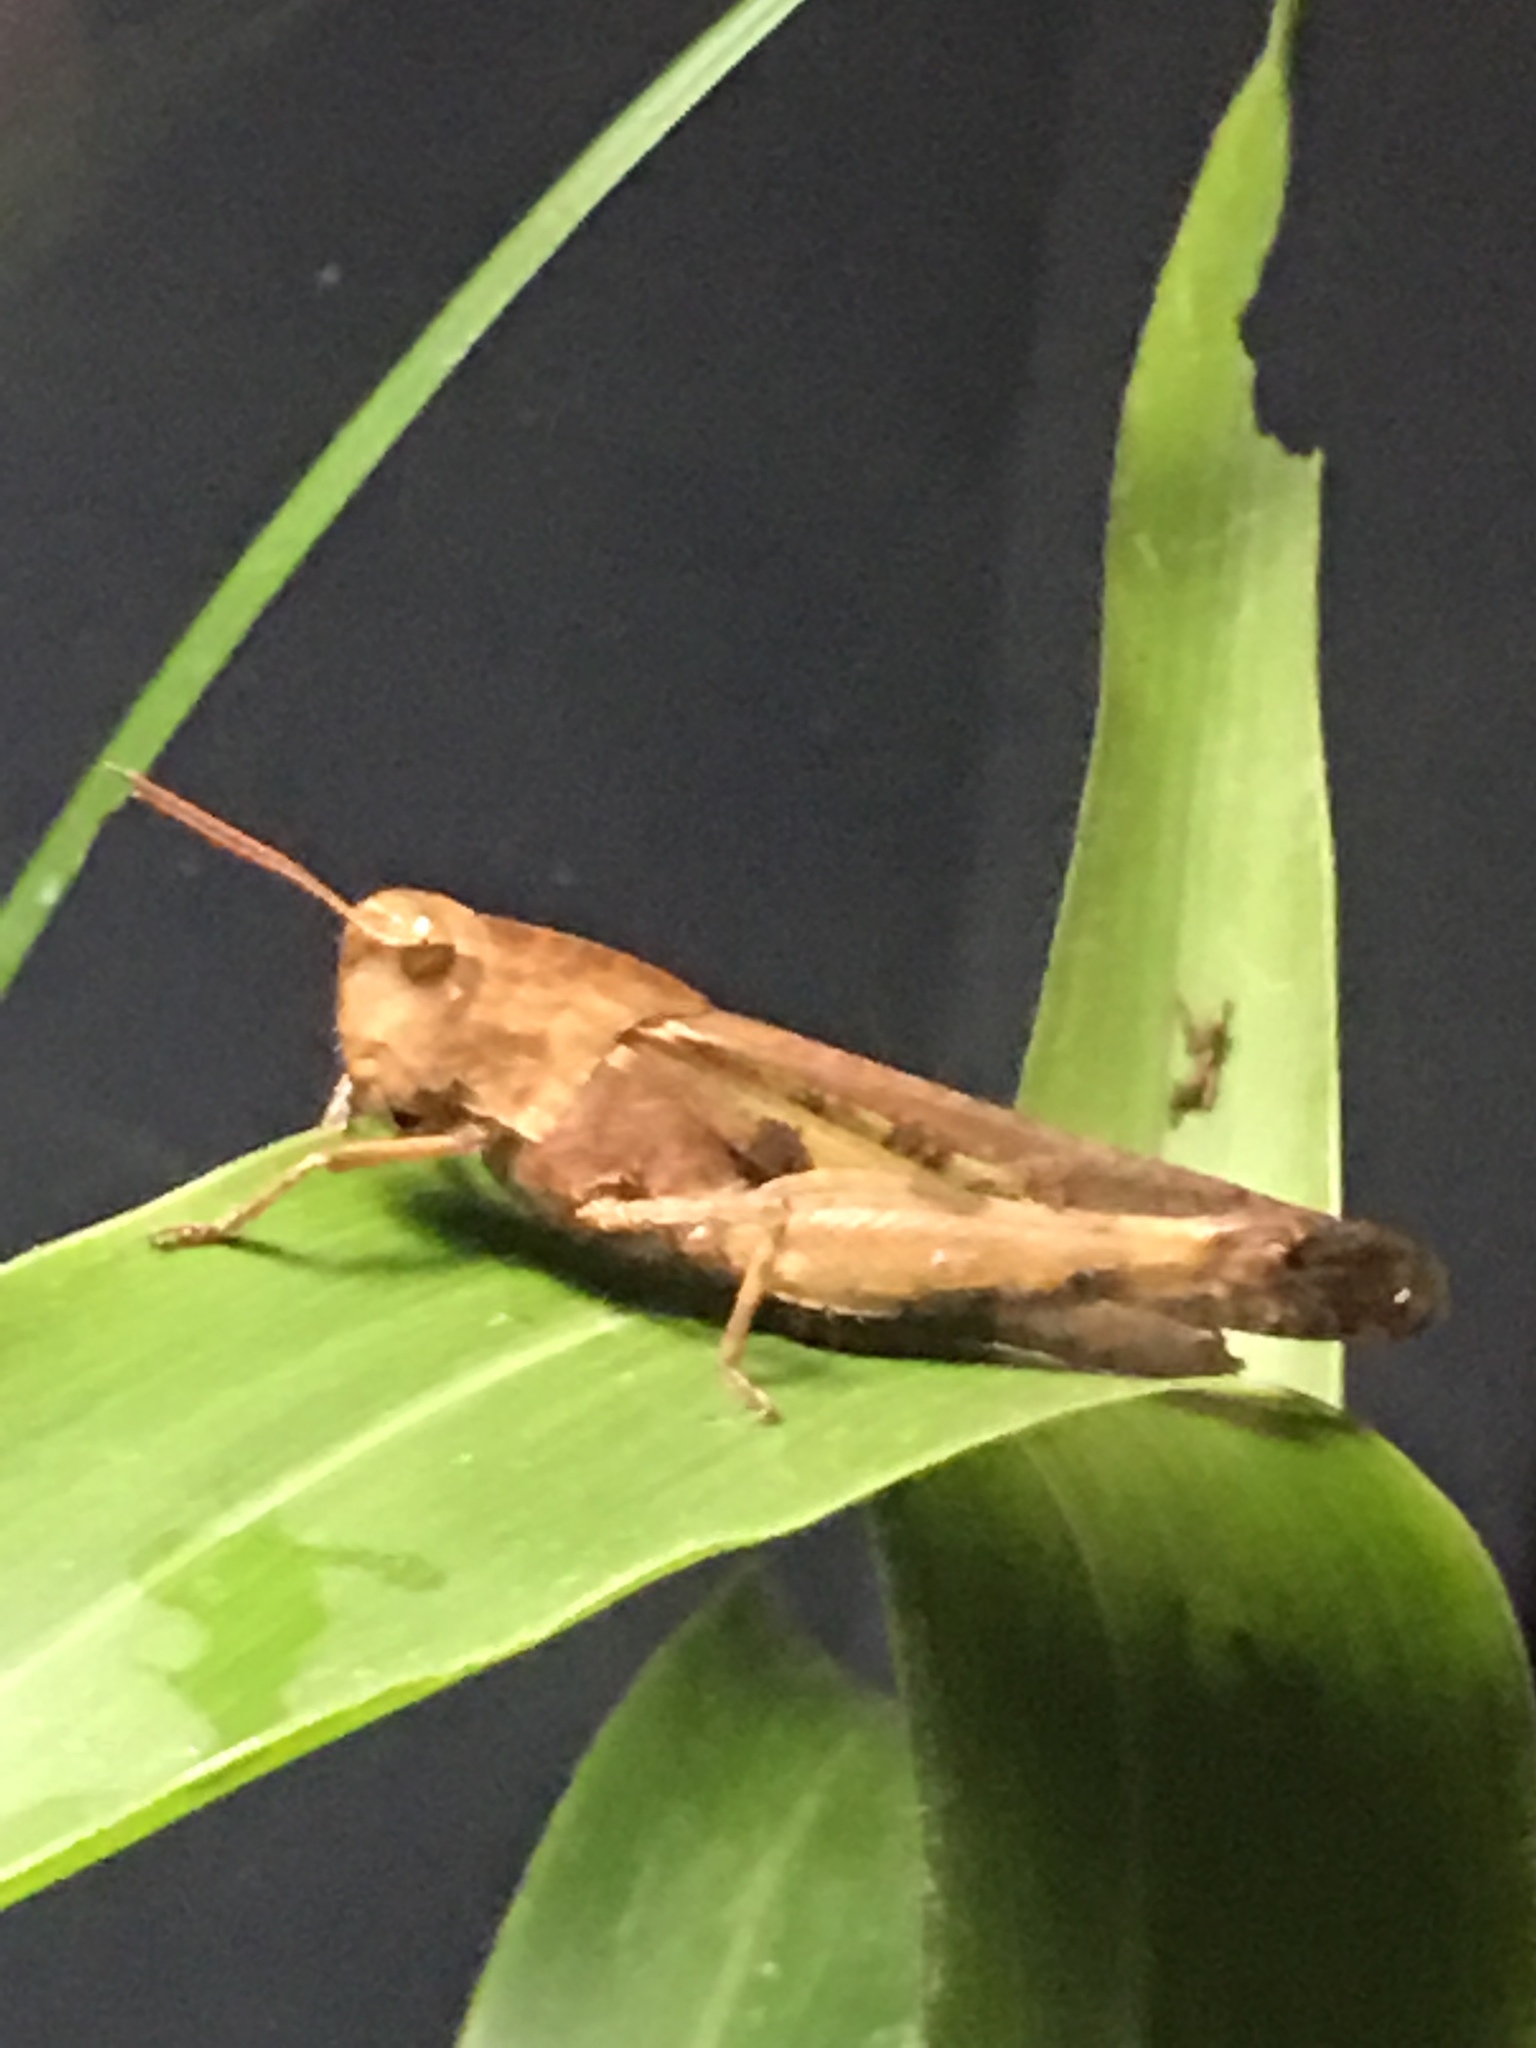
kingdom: Animalia
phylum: Arthropoda
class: Insecta
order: Orthoptera
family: Acrididae
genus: Chortophaga
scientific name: Chortophaga viridifasciata
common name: Green-striped grasshopper
